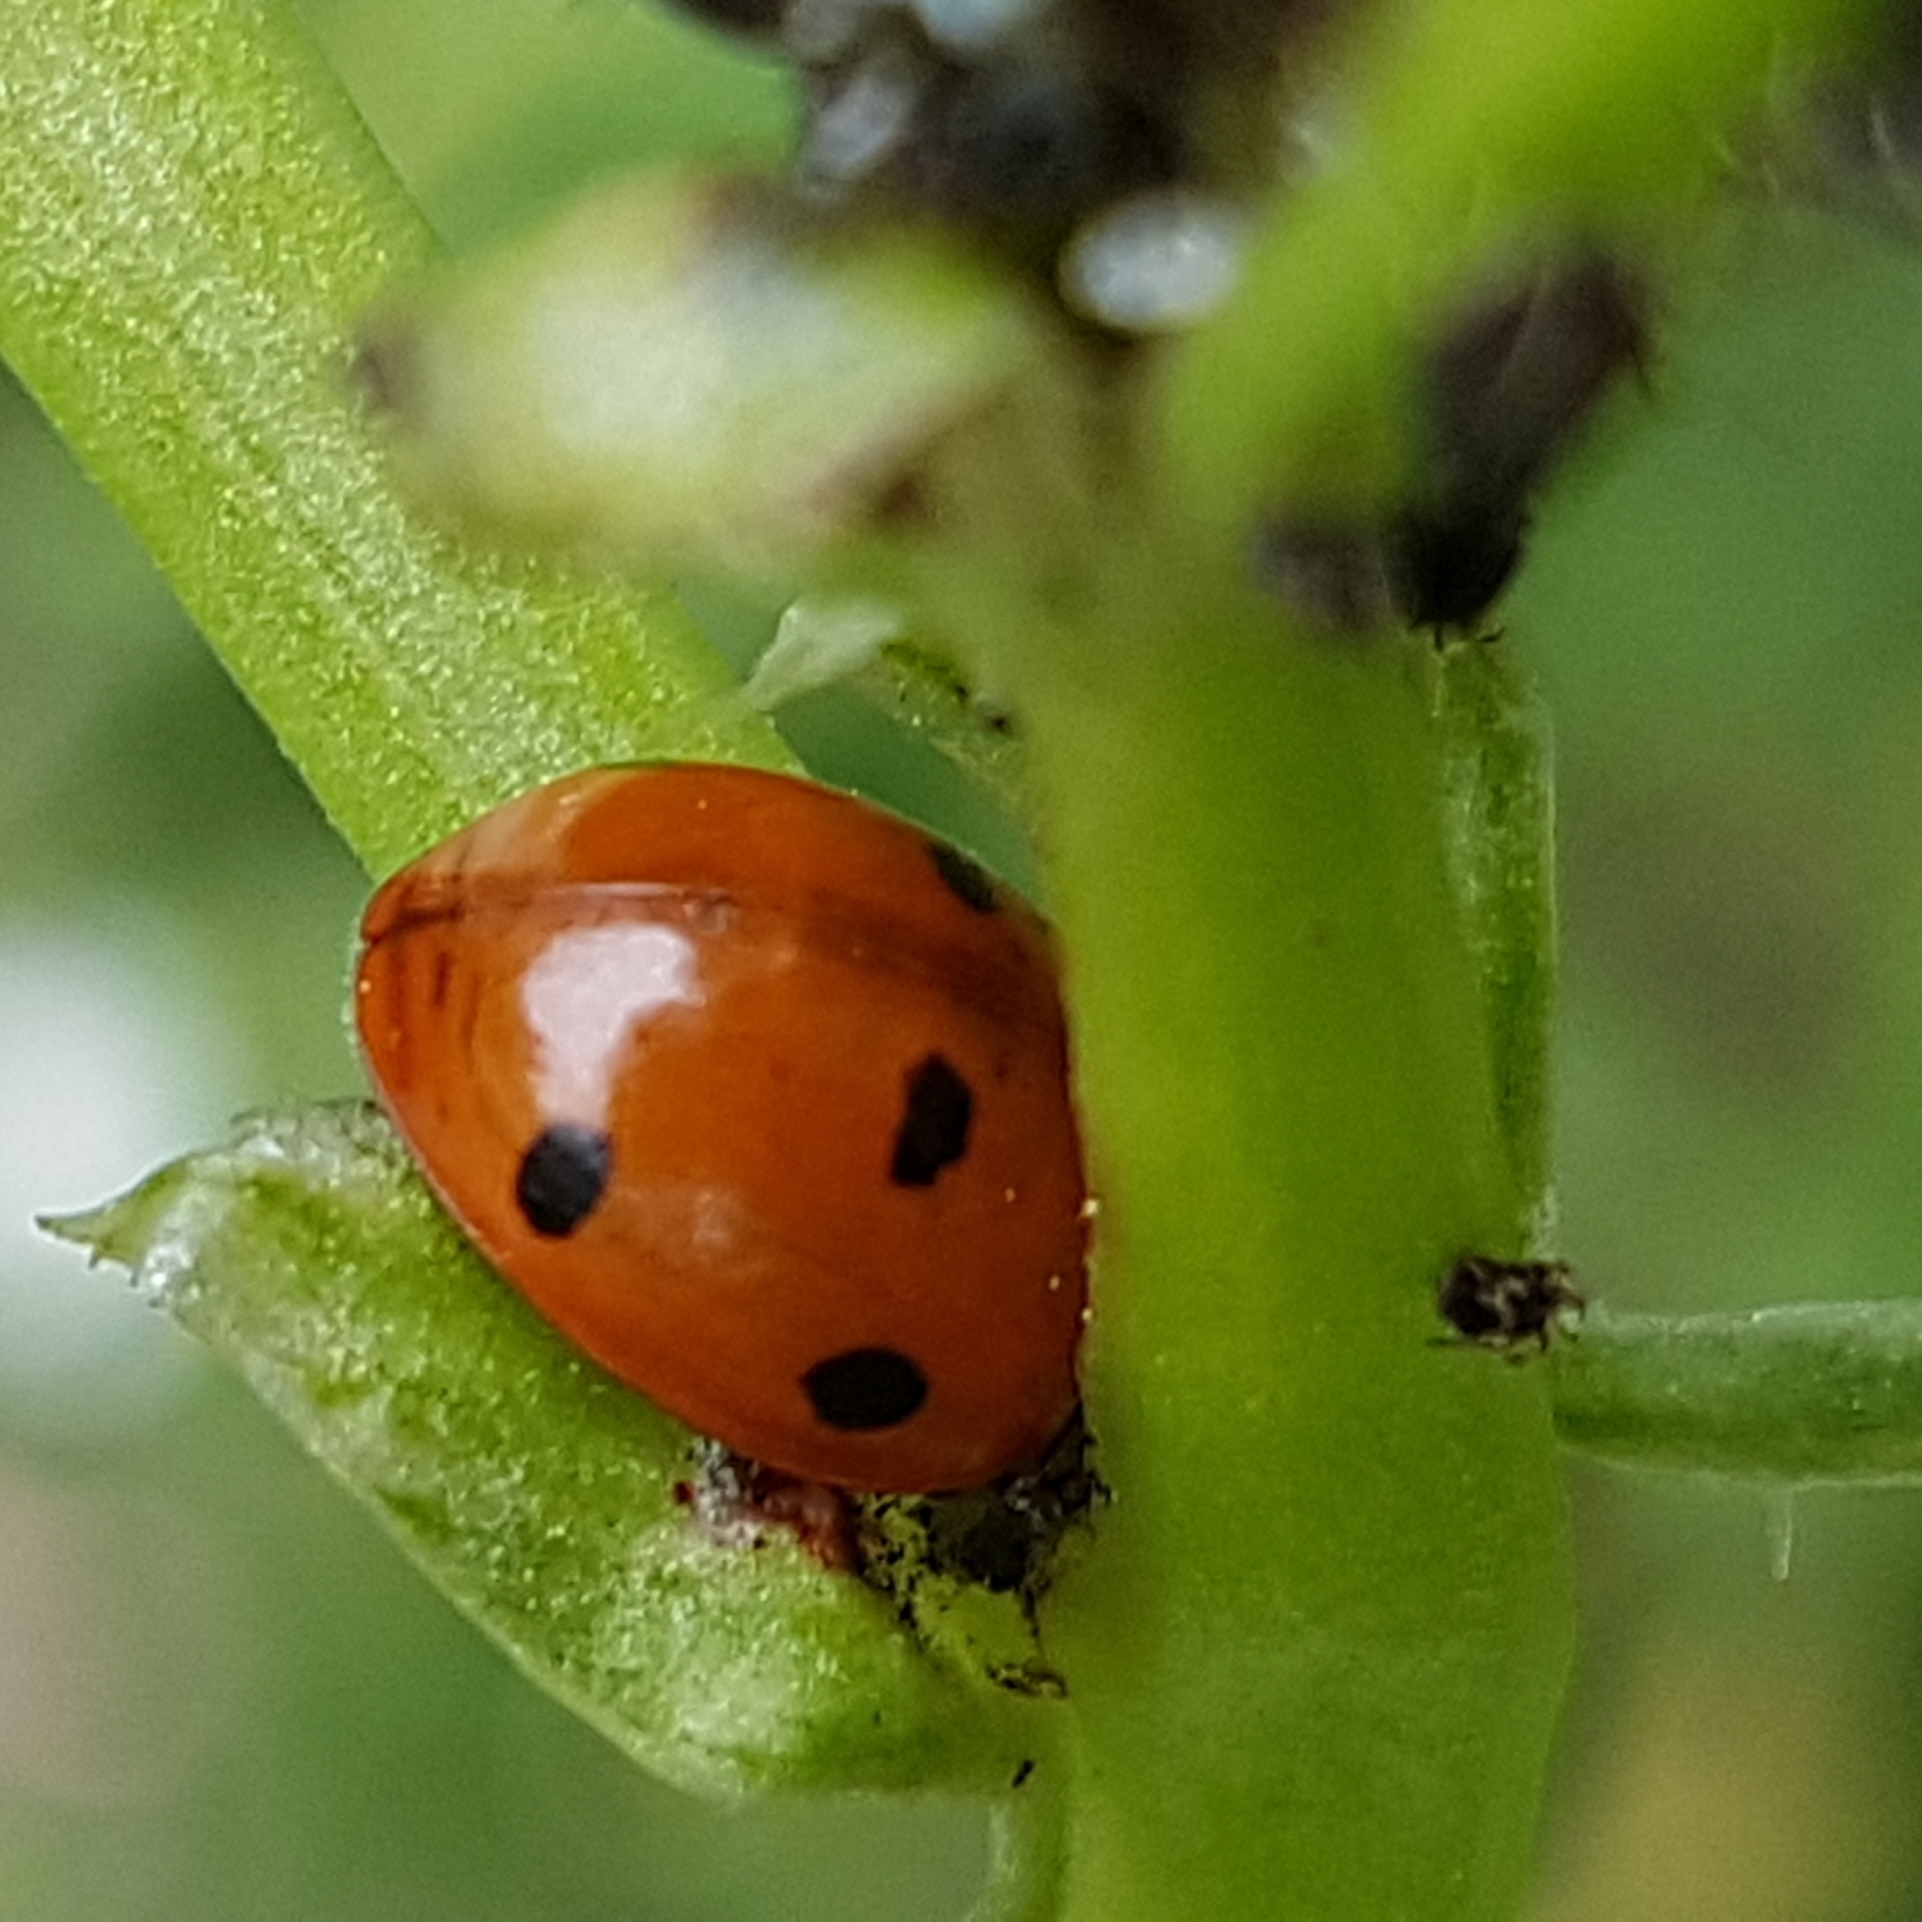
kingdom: Animalia
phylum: Arthropoda
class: Insecta
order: Coleoptera
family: Coccinellidae
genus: Coccinella
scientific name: Coccinella septempunctata
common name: Sevenspotted lady beetle
